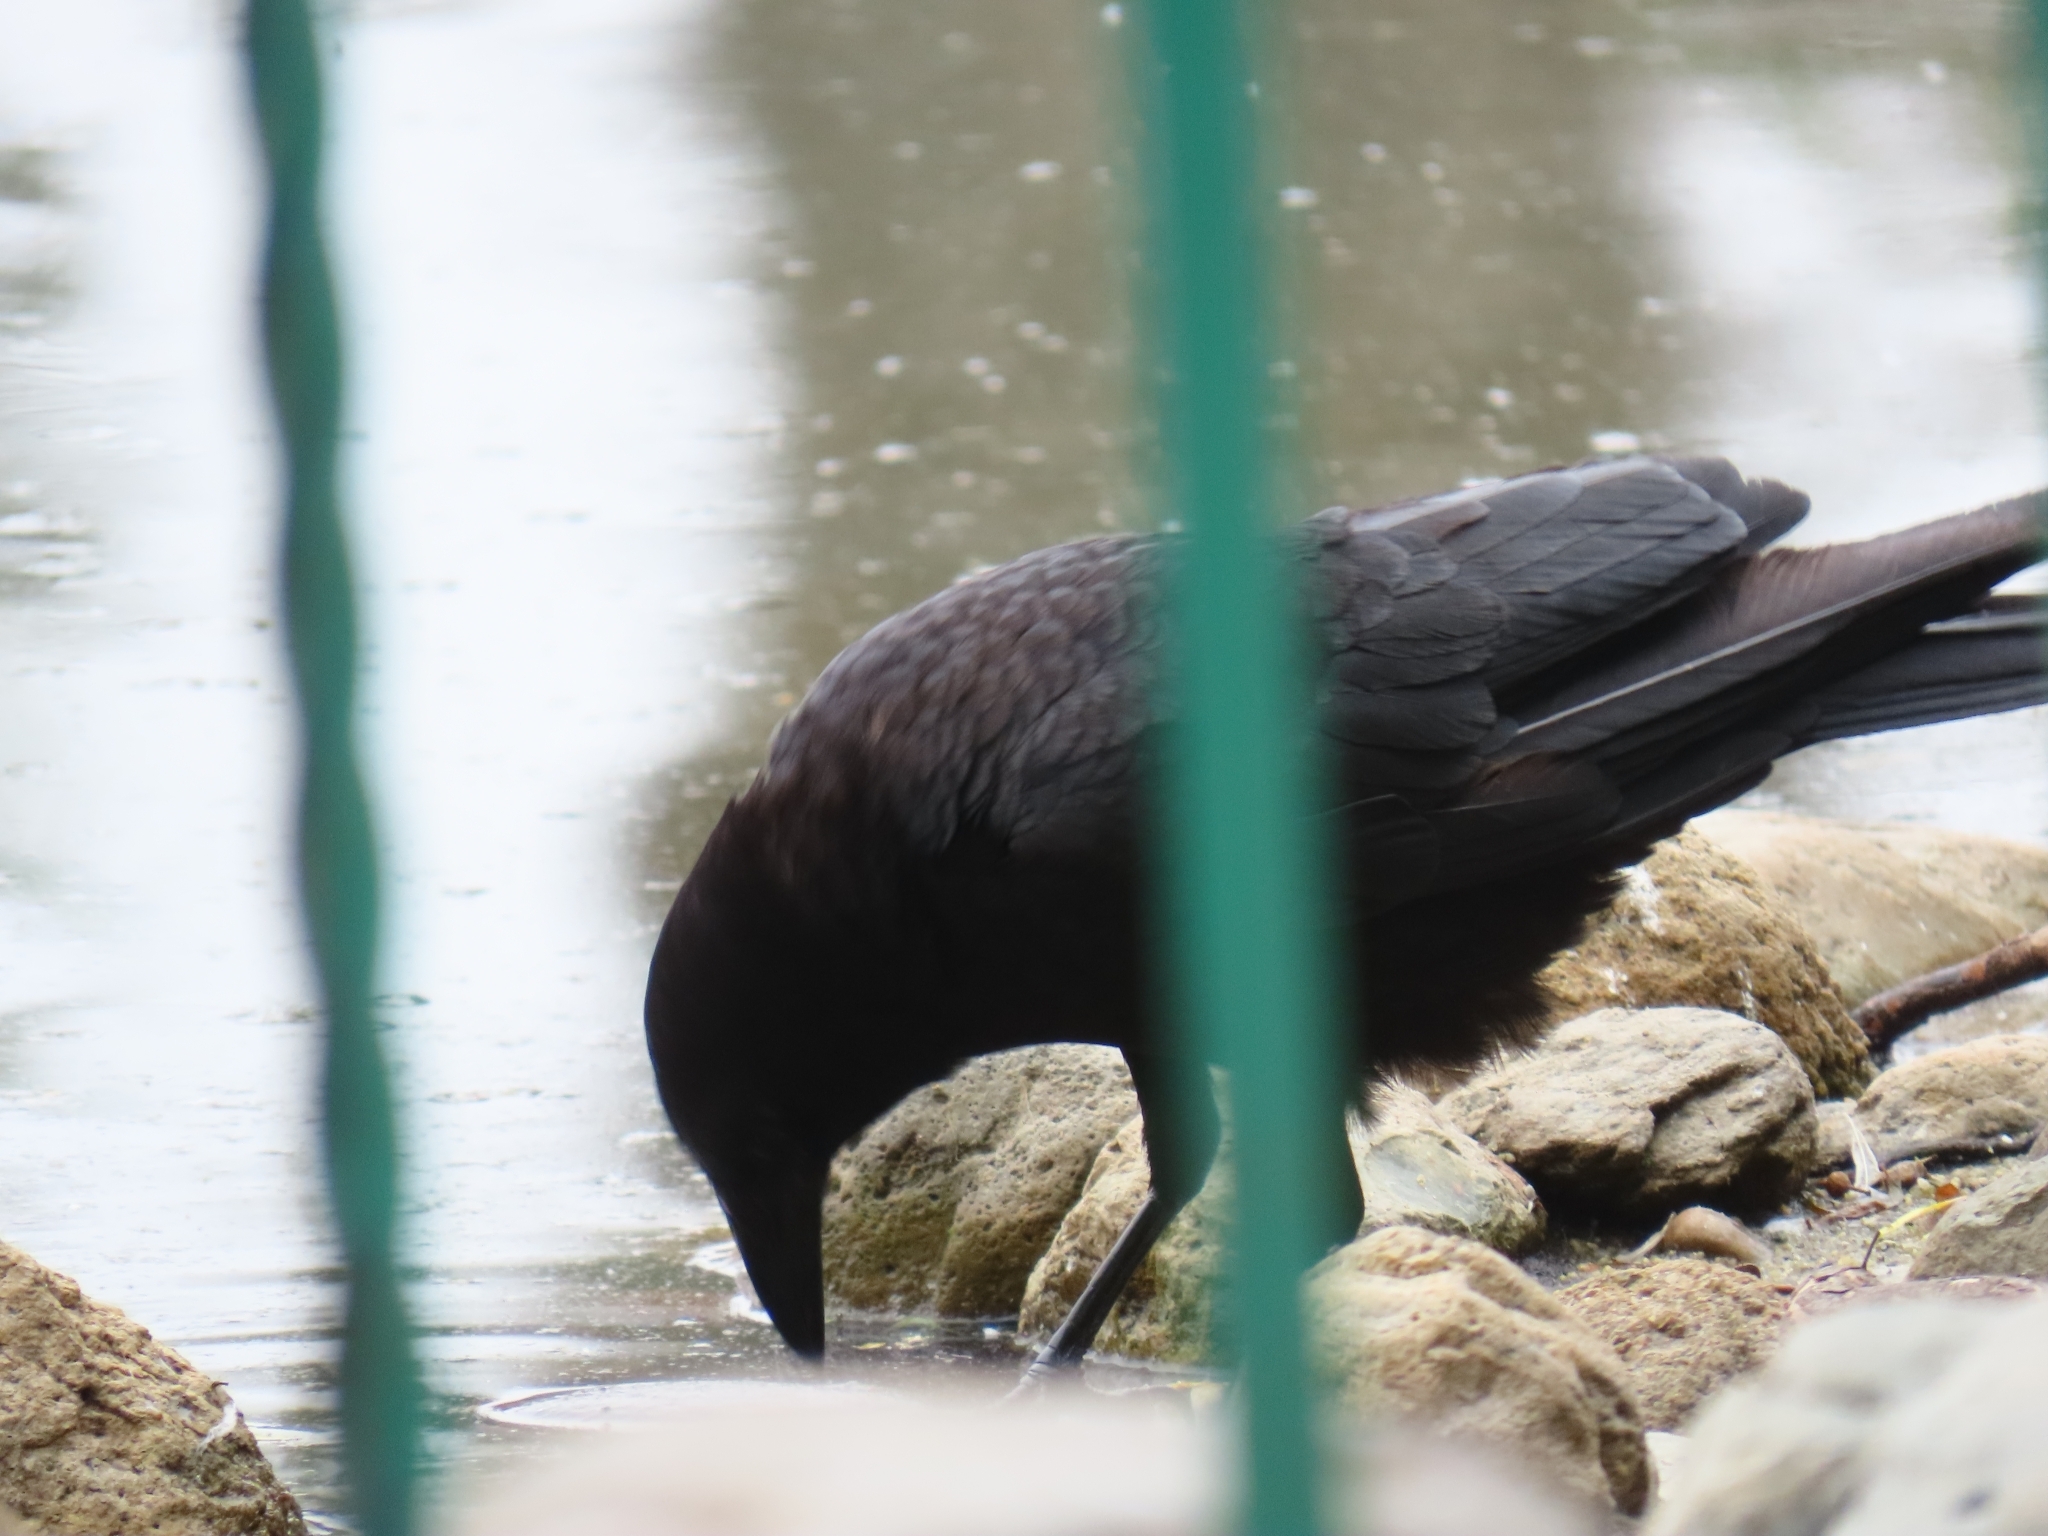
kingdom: Animalia
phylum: Chordata
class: Aves
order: Passeriformes
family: Corvidae
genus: Corvus
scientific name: Corvus brachyrhynchos
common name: American crow
